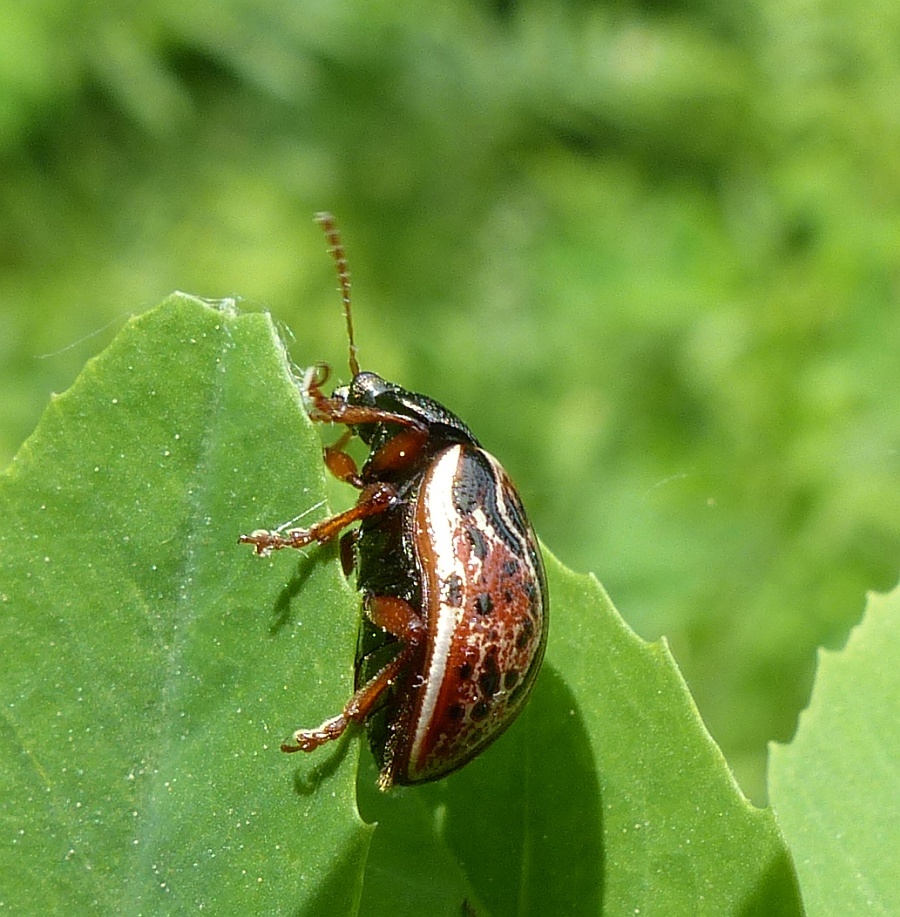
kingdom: Animalia
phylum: Arthropoda
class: Insecta
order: Coleoptera
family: Chrysomelidae
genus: Calligrapha
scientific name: Calligrapha alni
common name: Russet alder leaf beetle
